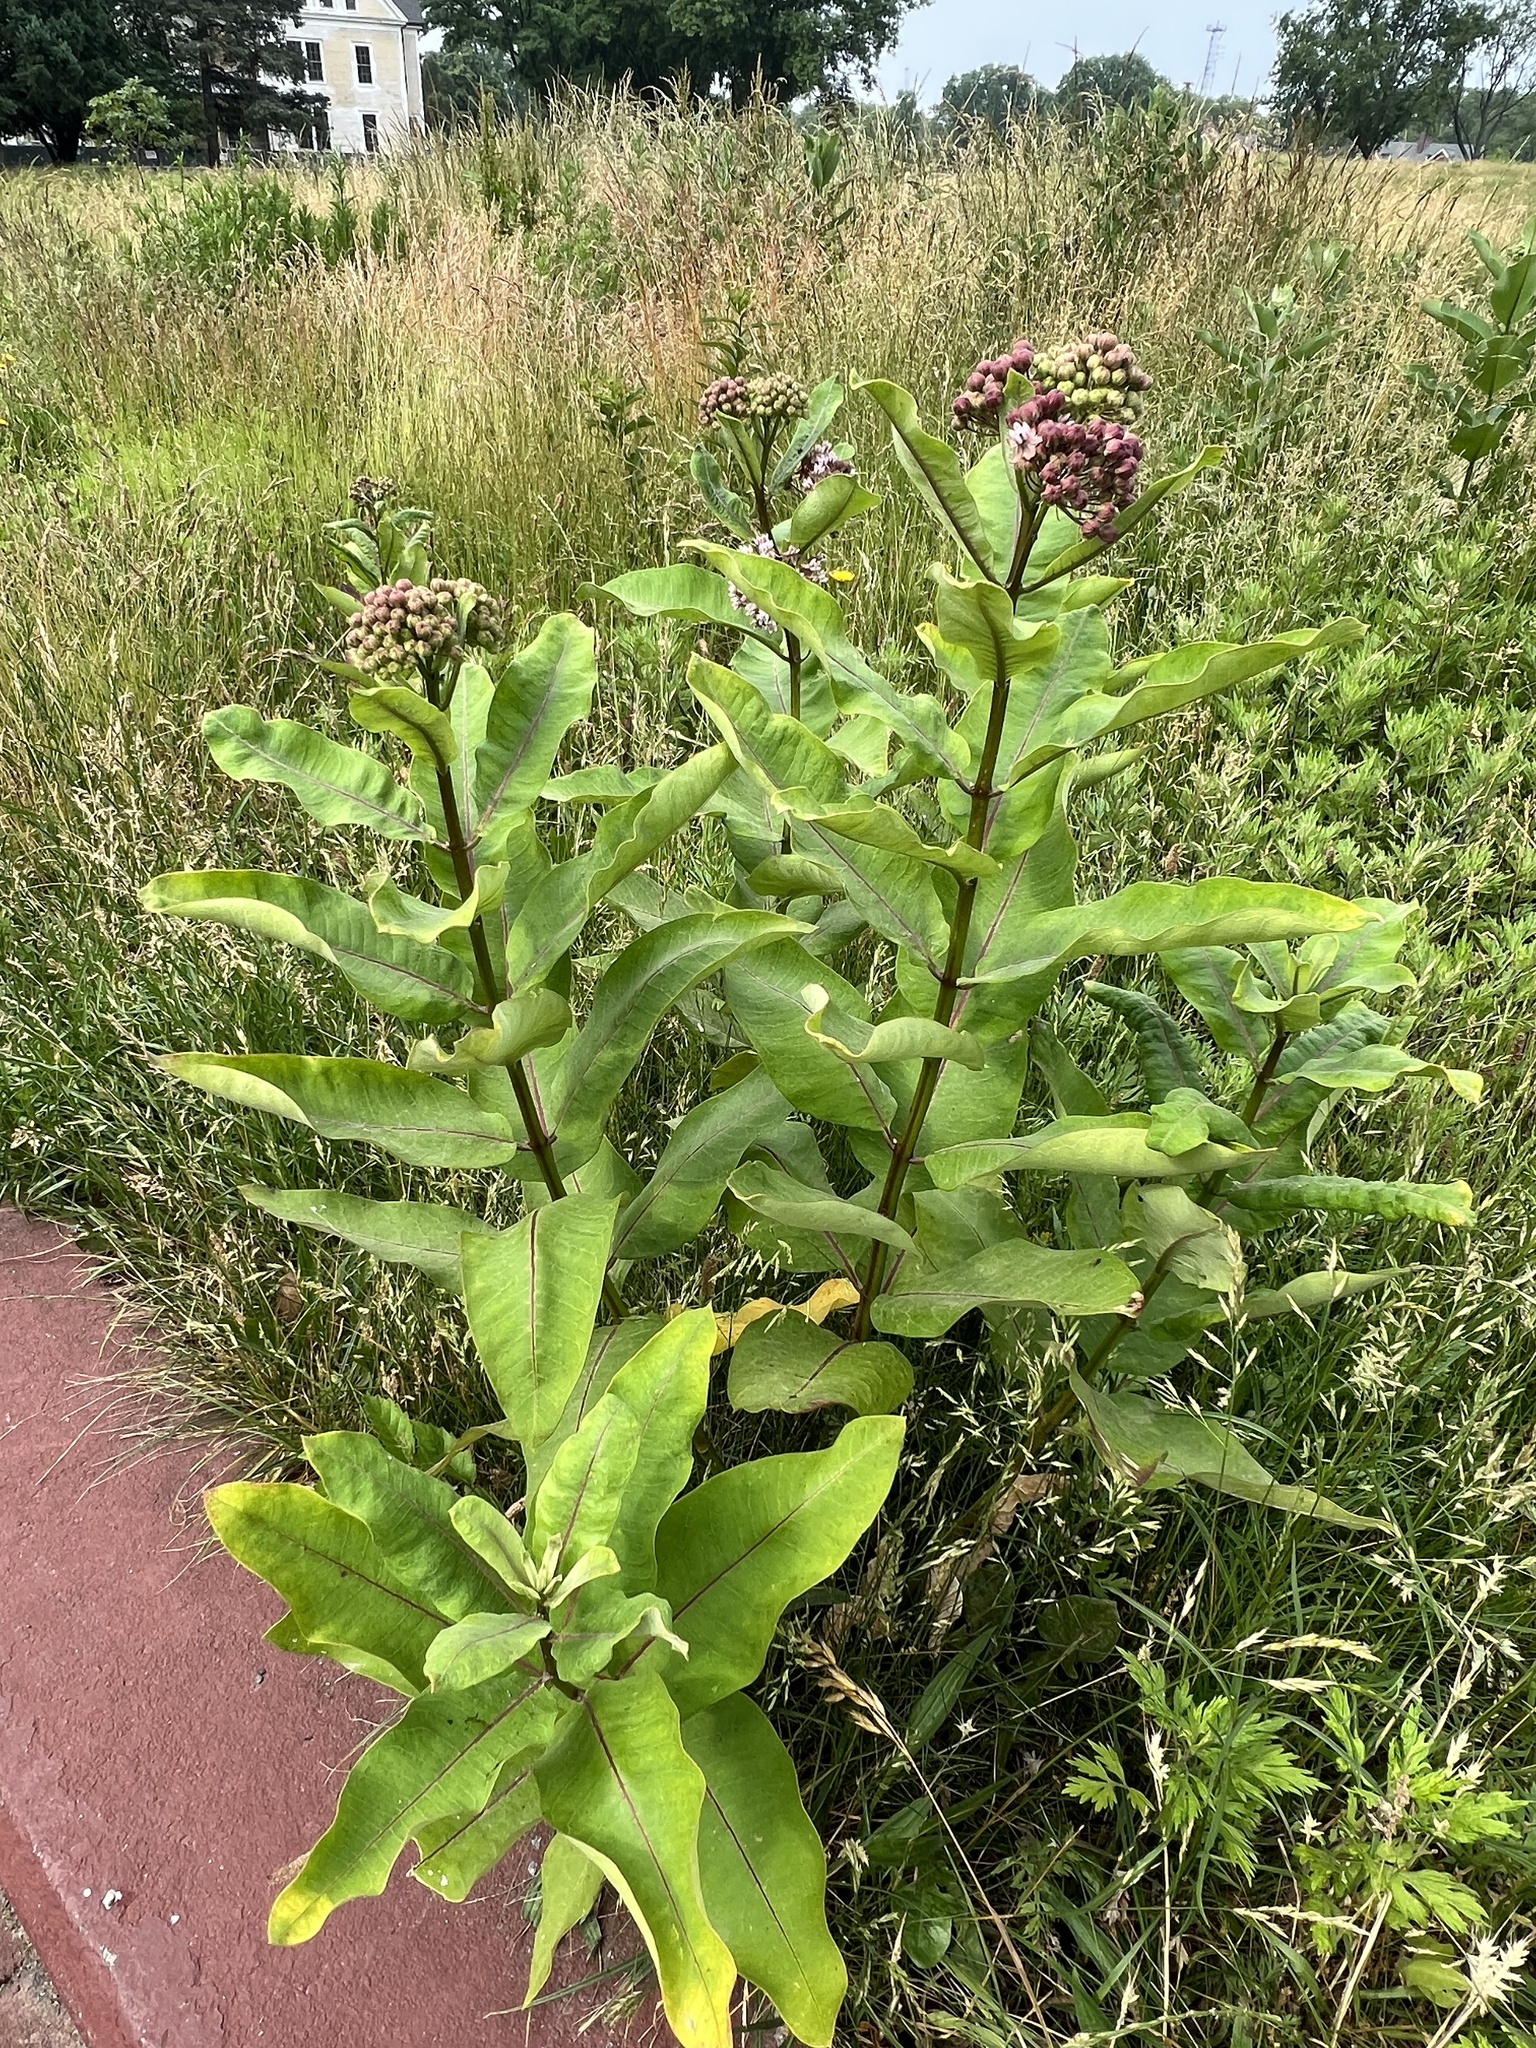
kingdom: Plantae
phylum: Tracheophyta
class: Magnoliopsida
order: Gentianales
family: Apocynaceae
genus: Asclepias
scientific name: Asclepias syriaca
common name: Common milkweed
